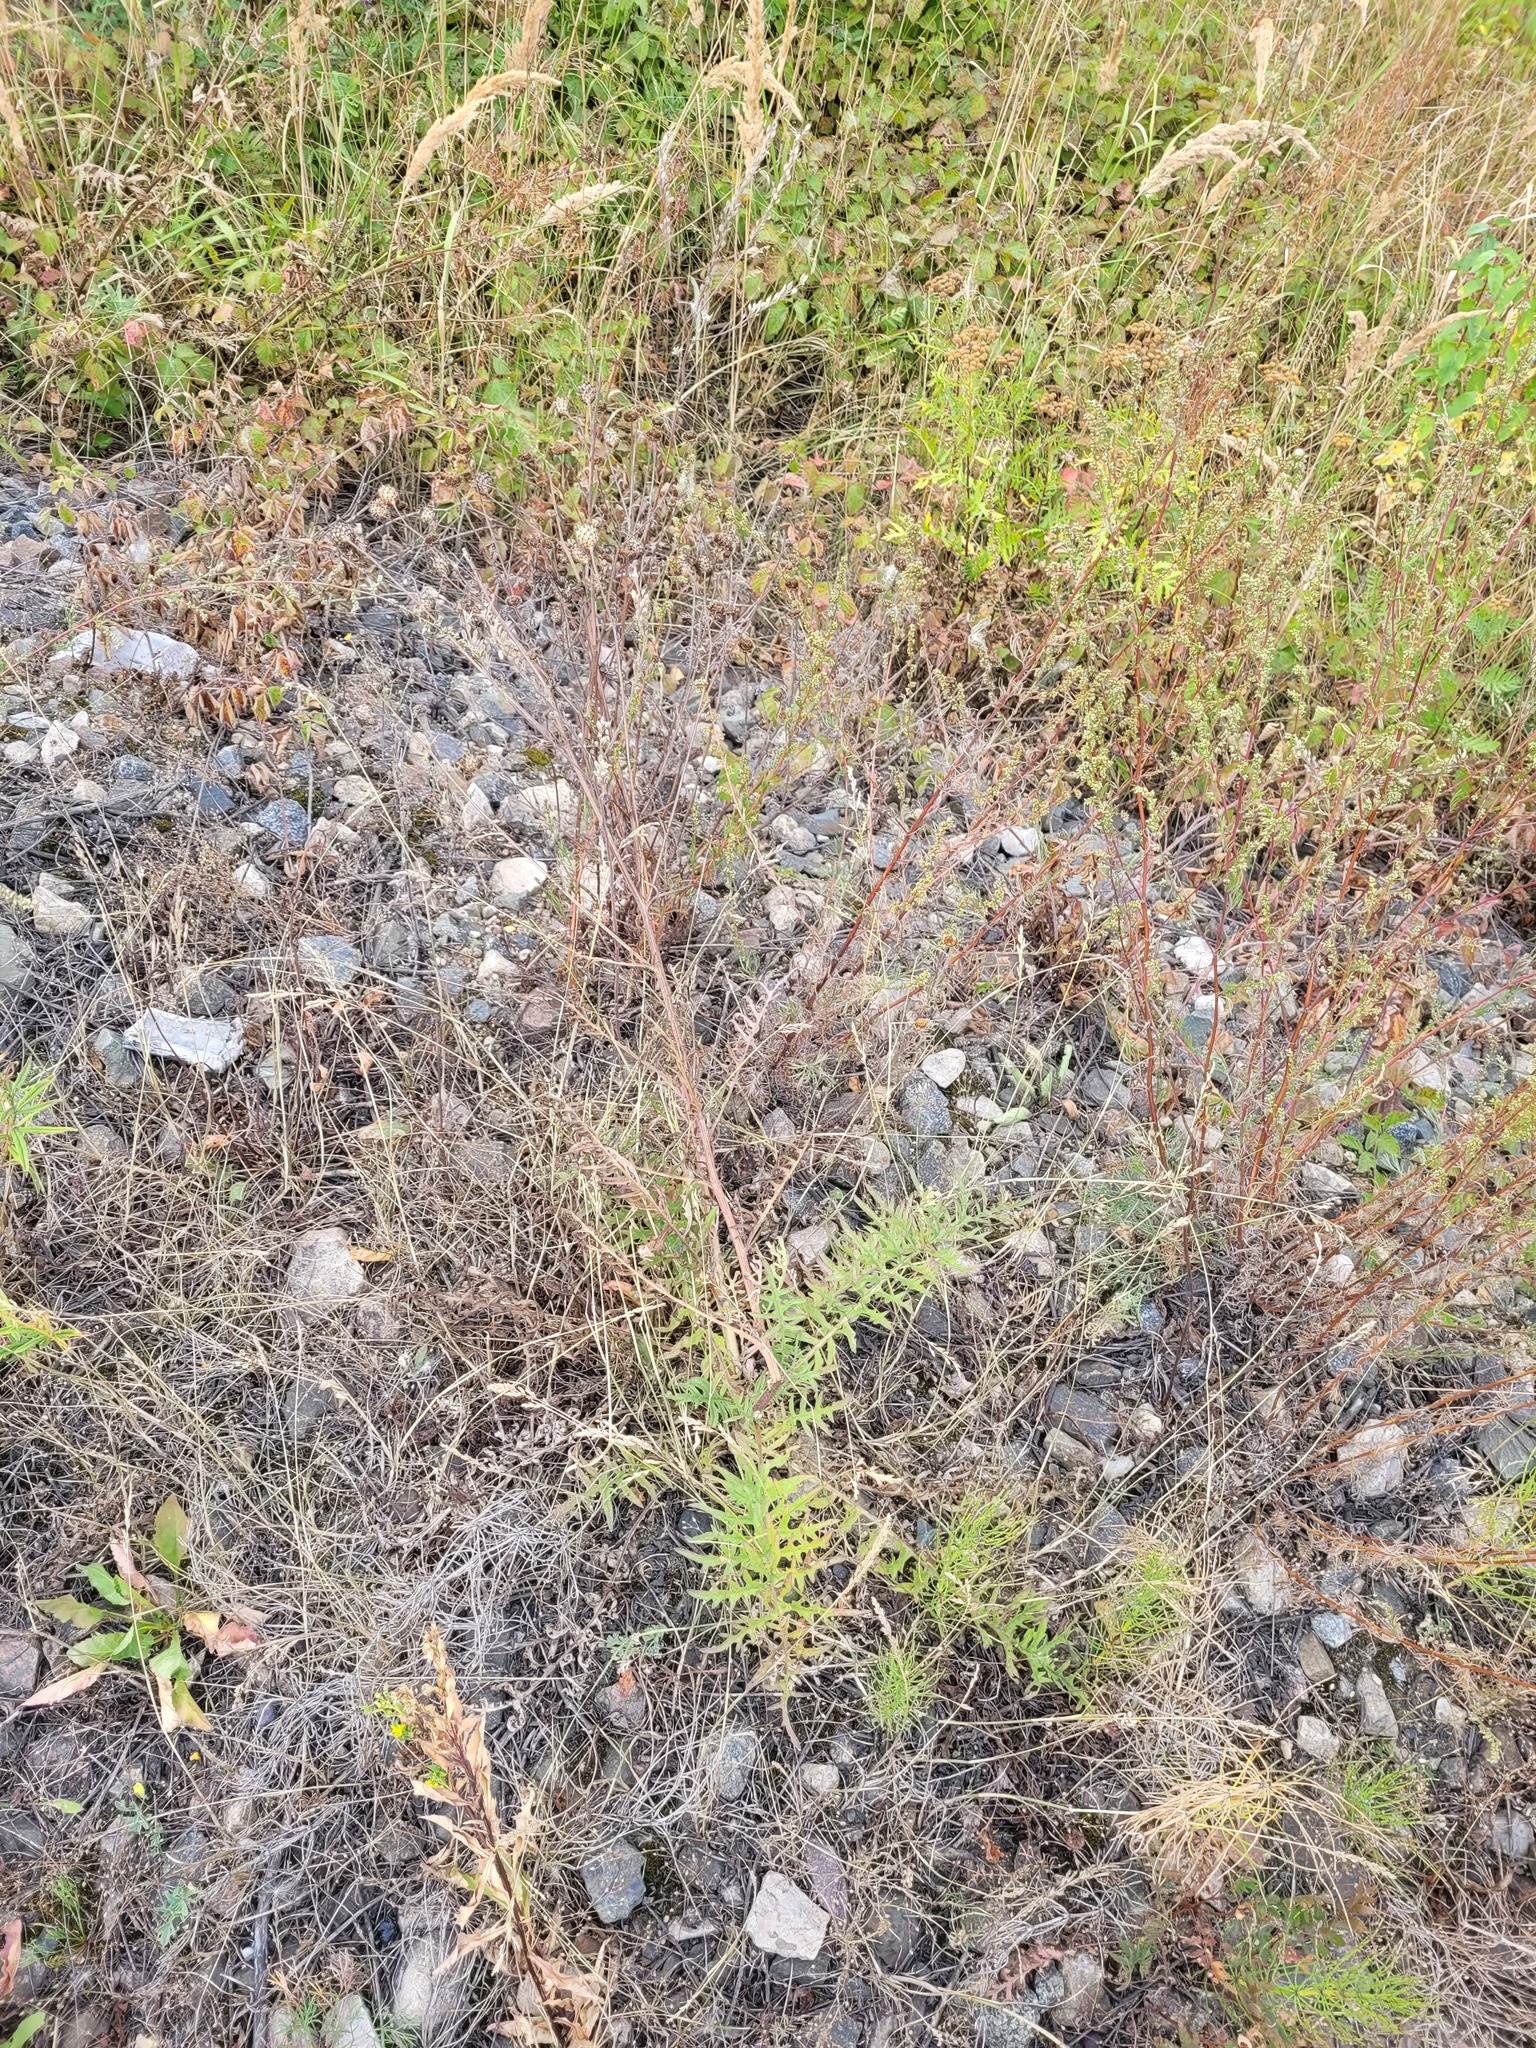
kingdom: Plantae
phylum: Tracheophyta
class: Magnoliopsida
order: Asterales
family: Asteraceae
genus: Centaurea
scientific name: Centaurea scabiosa
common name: Greater knapweed
